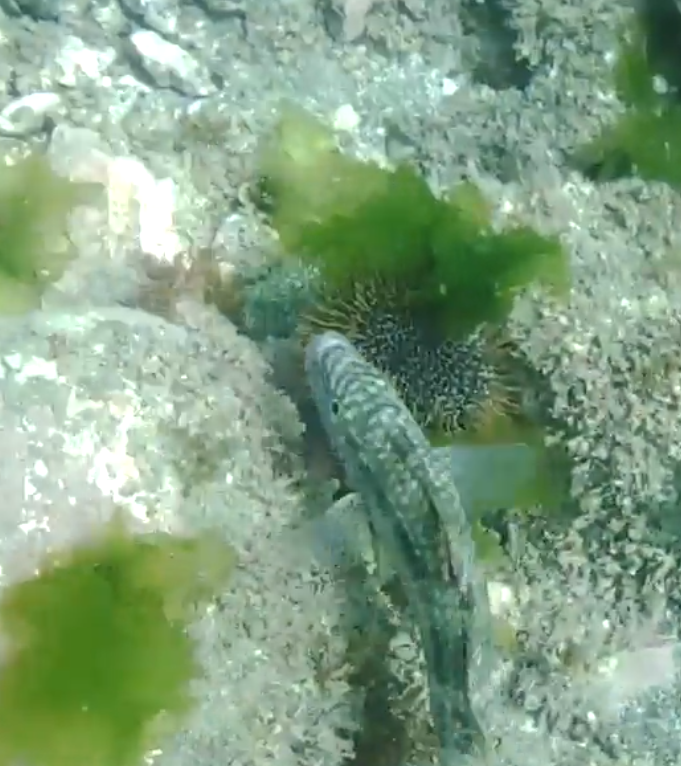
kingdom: Animalia
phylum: Chordata
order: Perciformes
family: Mullidae
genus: Upeneichthys
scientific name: Upeneichthys lineatus
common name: Red mullet
